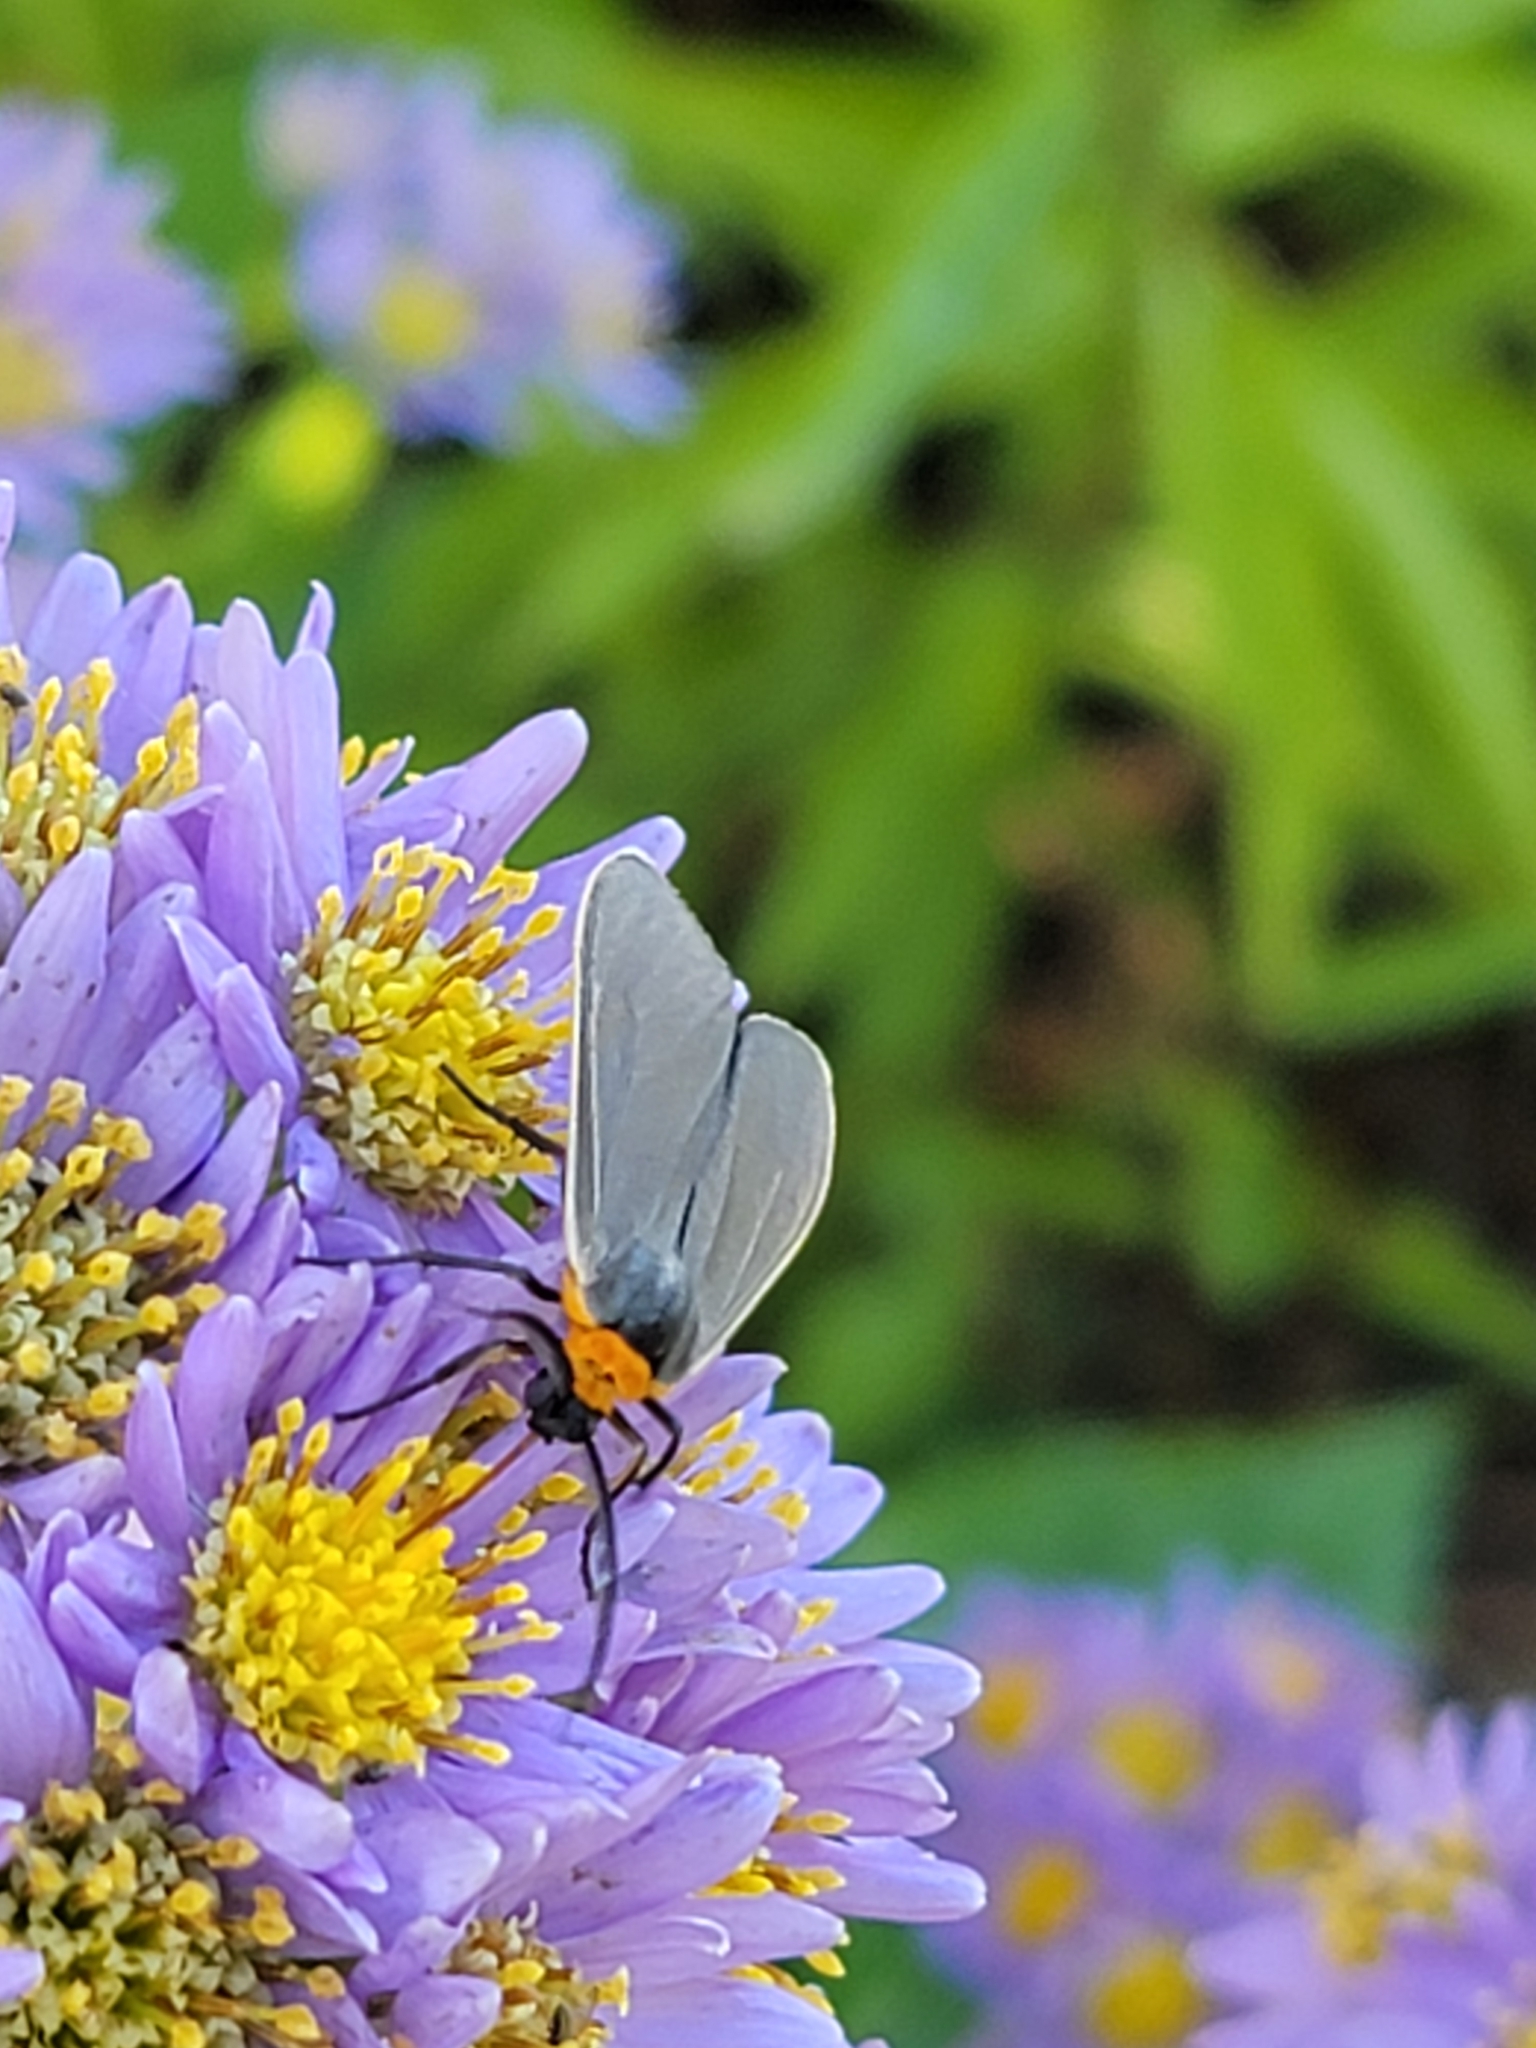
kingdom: Animalia
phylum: Arthropoda
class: Insecta
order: Lepidoptera
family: Erebidae
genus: Cisseps
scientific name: Cisseps fulvicollis
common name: Yellow-collared scape moth
